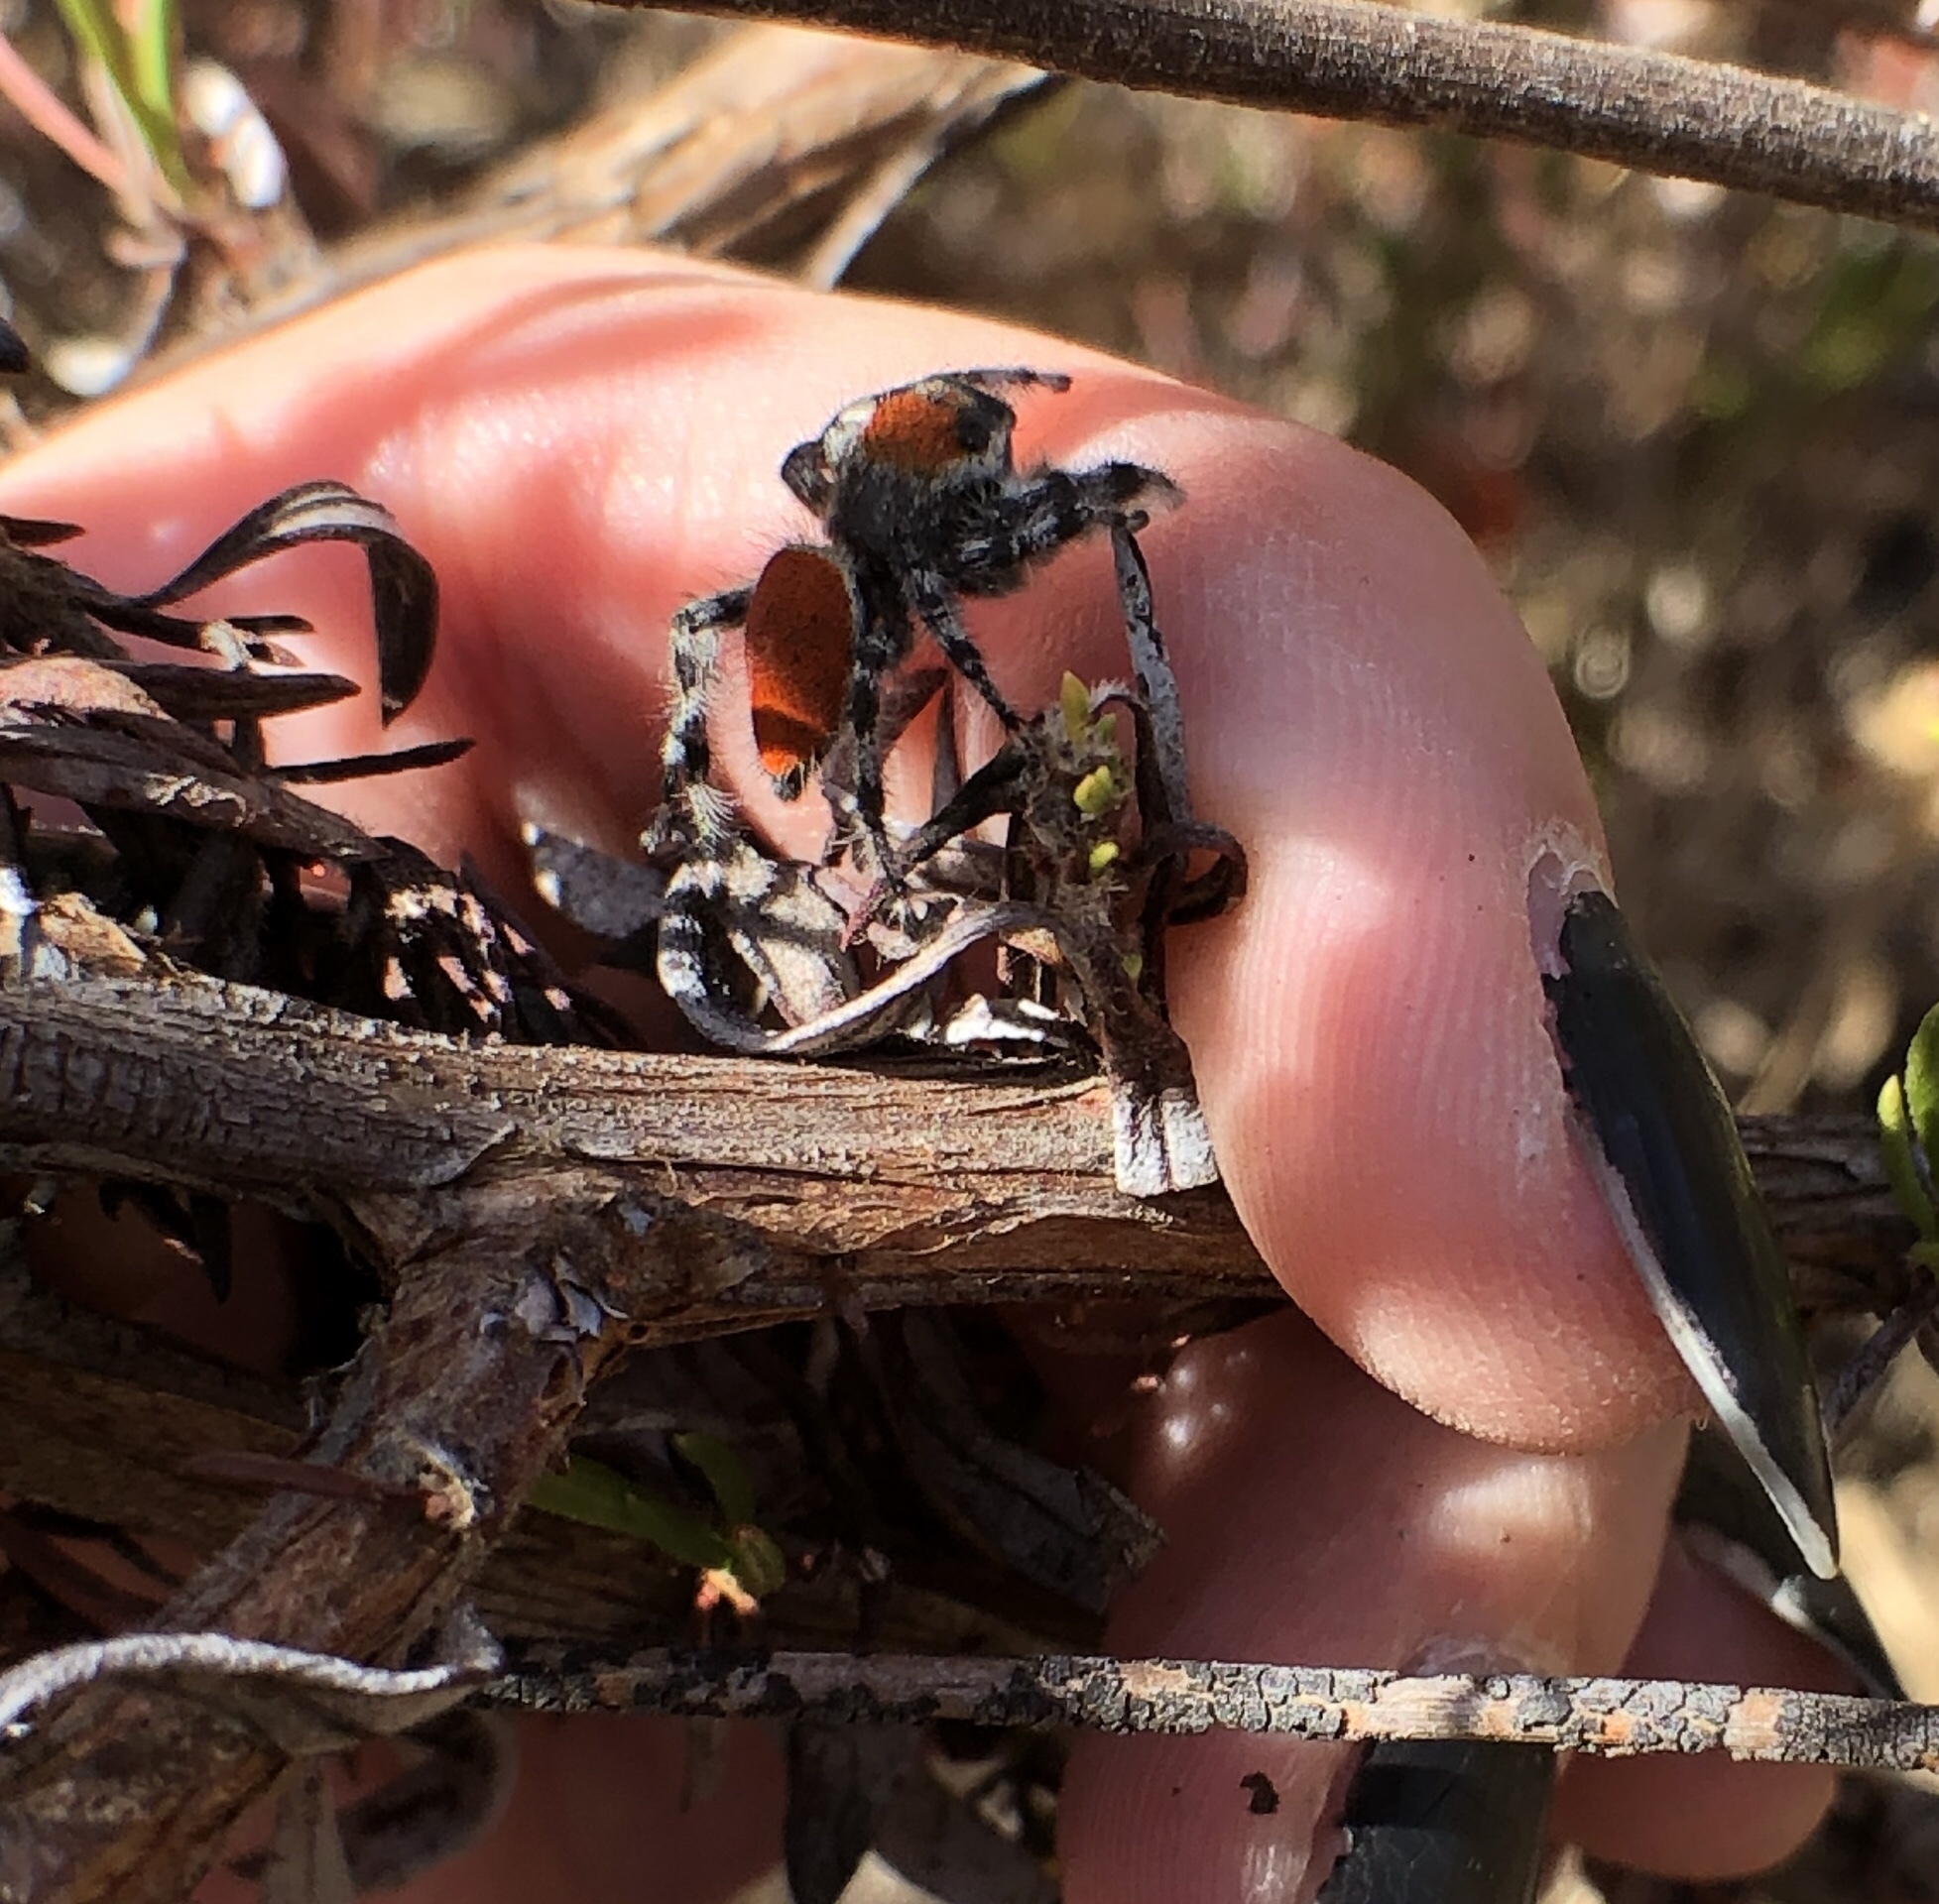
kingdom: Animalia
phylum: Arthropoda
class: Arachnida
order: Araneae
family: Salticidae
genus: Phidippus
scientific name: Phidippus adumbratus
